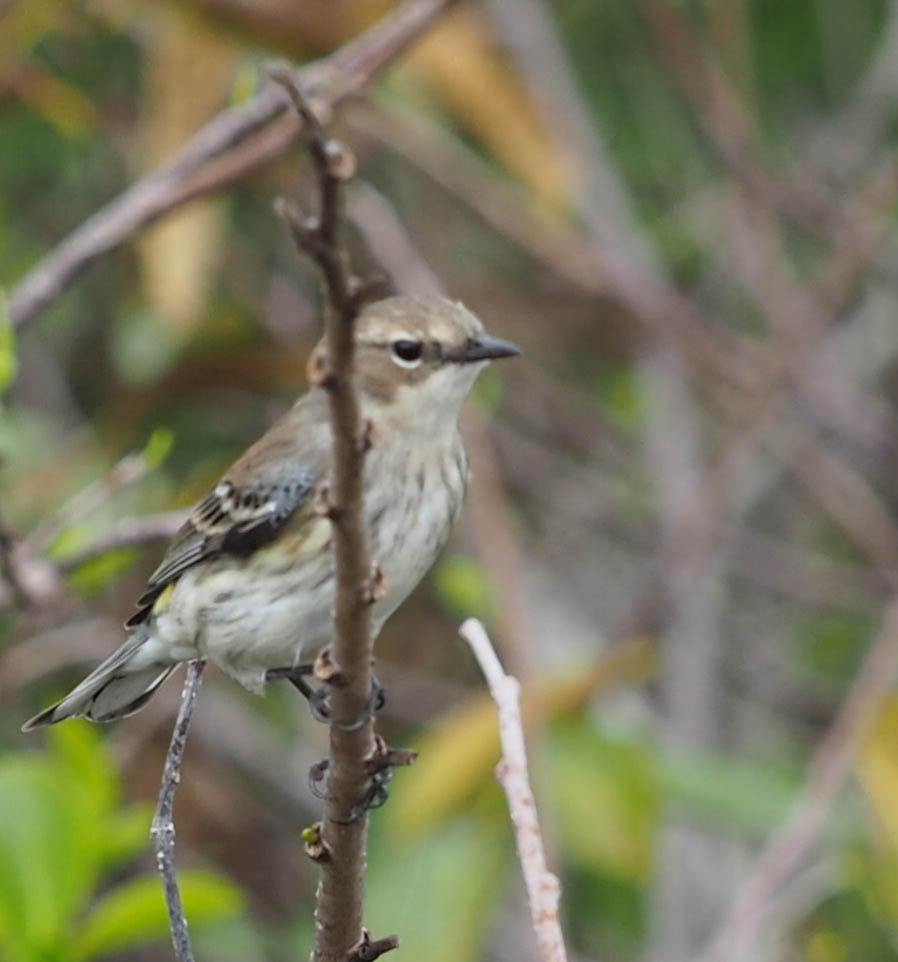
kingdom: Animalia
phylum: Chordata
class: Aves
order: Passeriformes
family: Parulidae
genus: Setophaga
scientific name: Setophaga coronata
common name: Myrtle warbler
